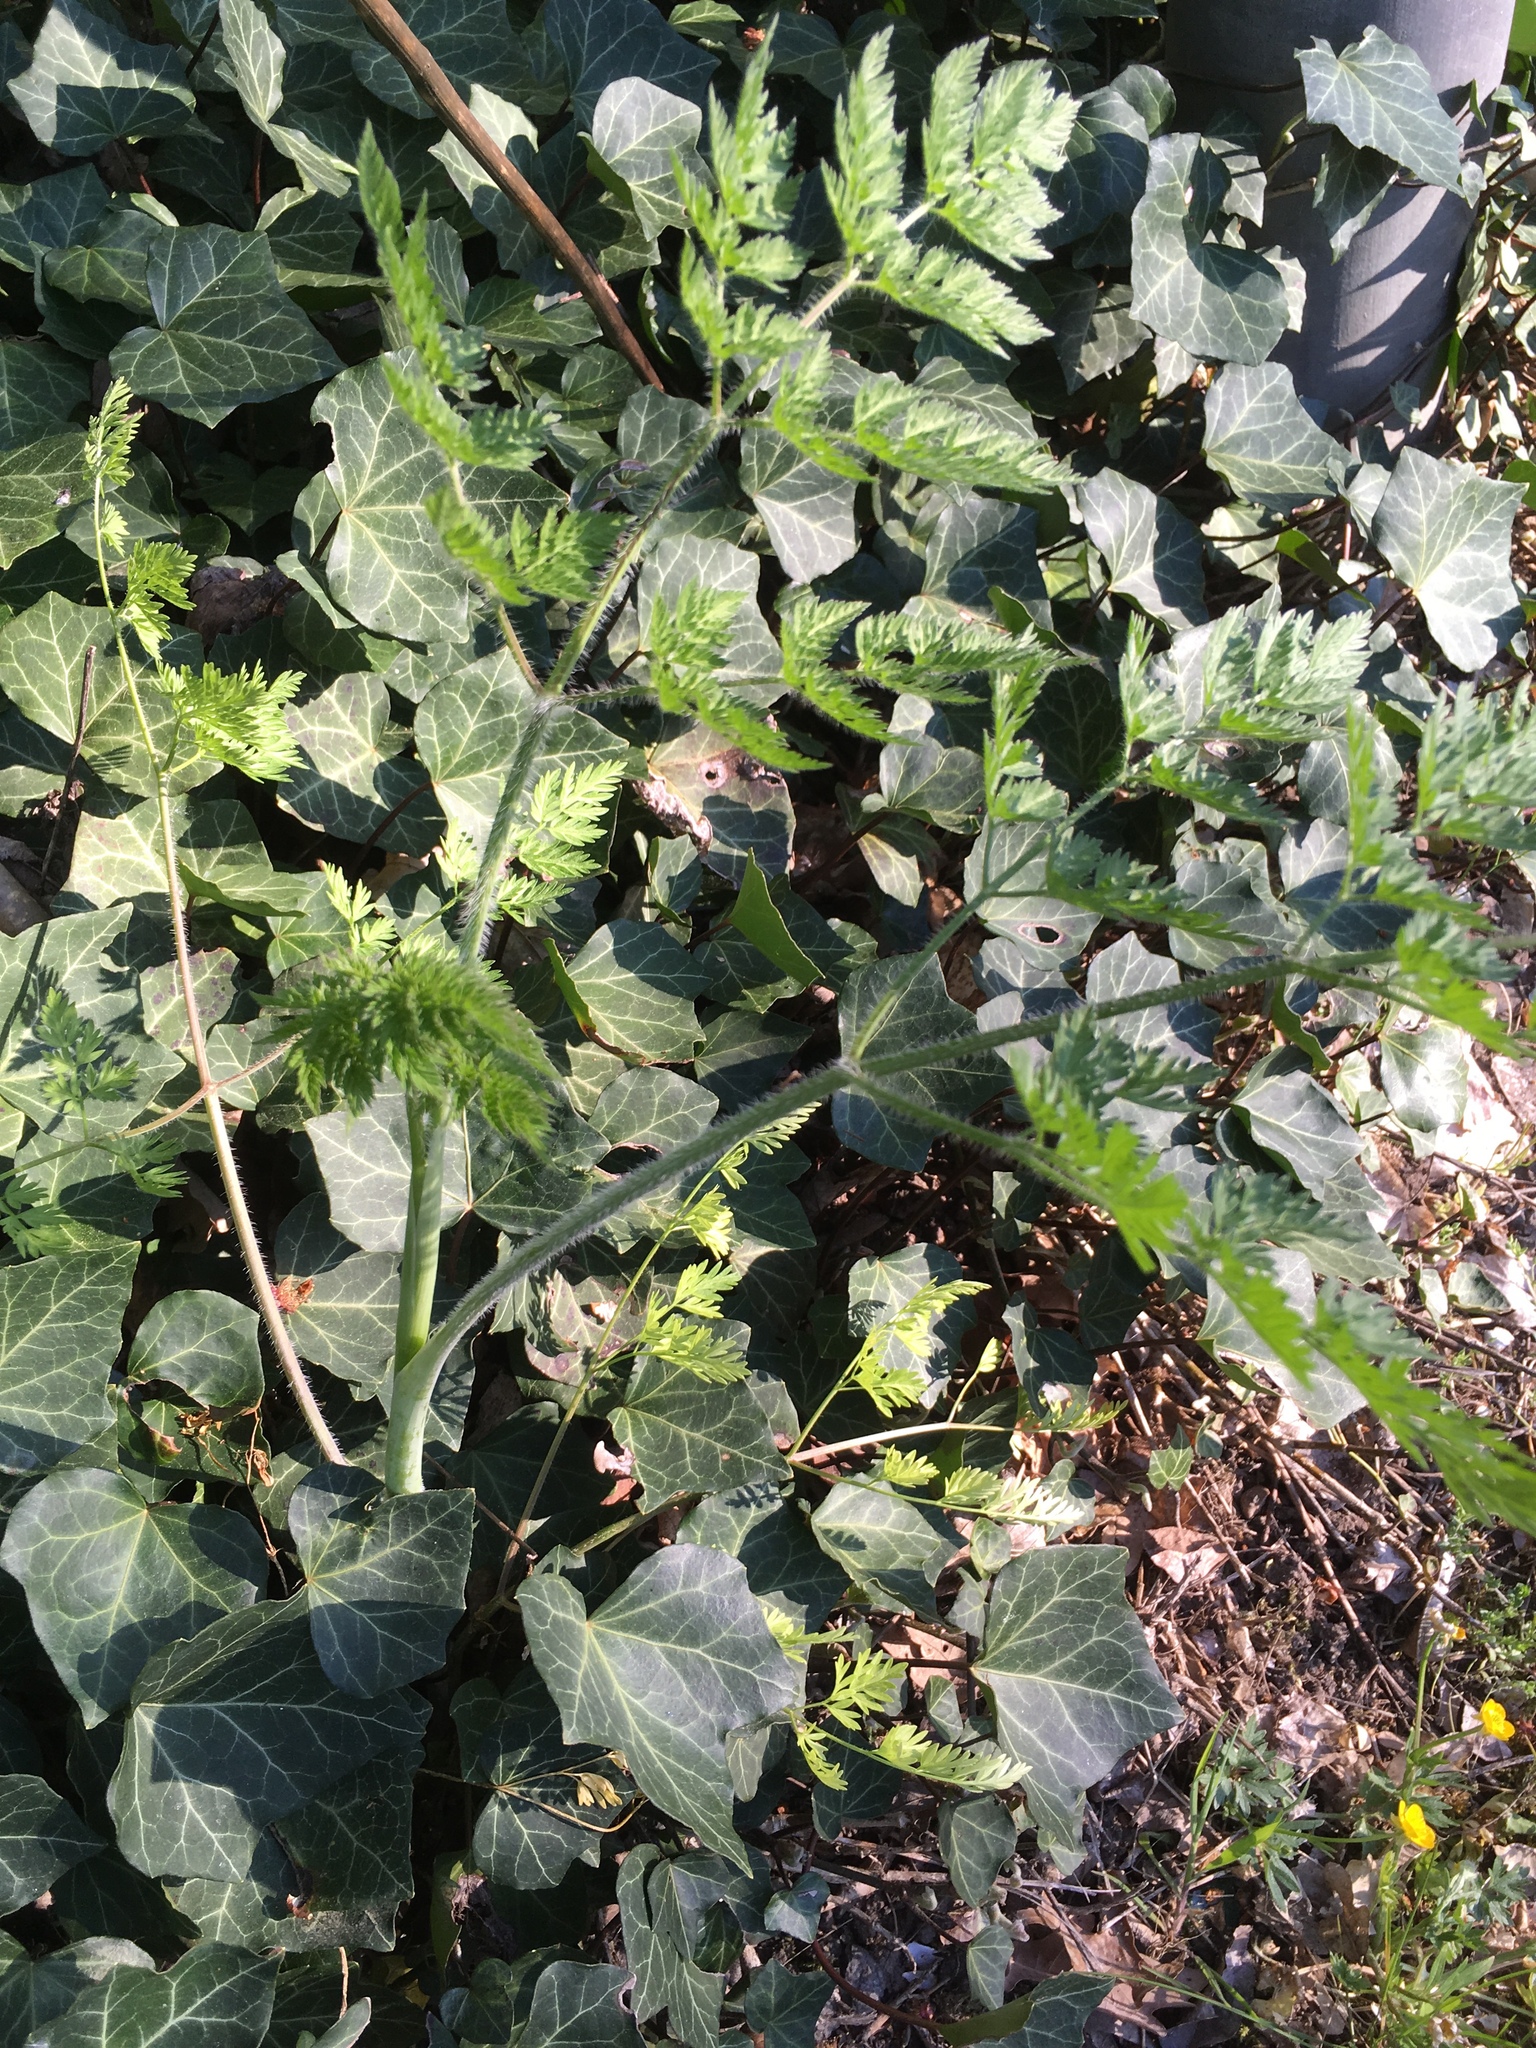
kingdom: Plantae
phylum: Tracheophyta
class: Magnoliopsida
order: Apiales
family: Apiaceae
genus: Chaerophyllum
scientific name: Chaerophyllum bulbosum
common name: Bulbous chervil
